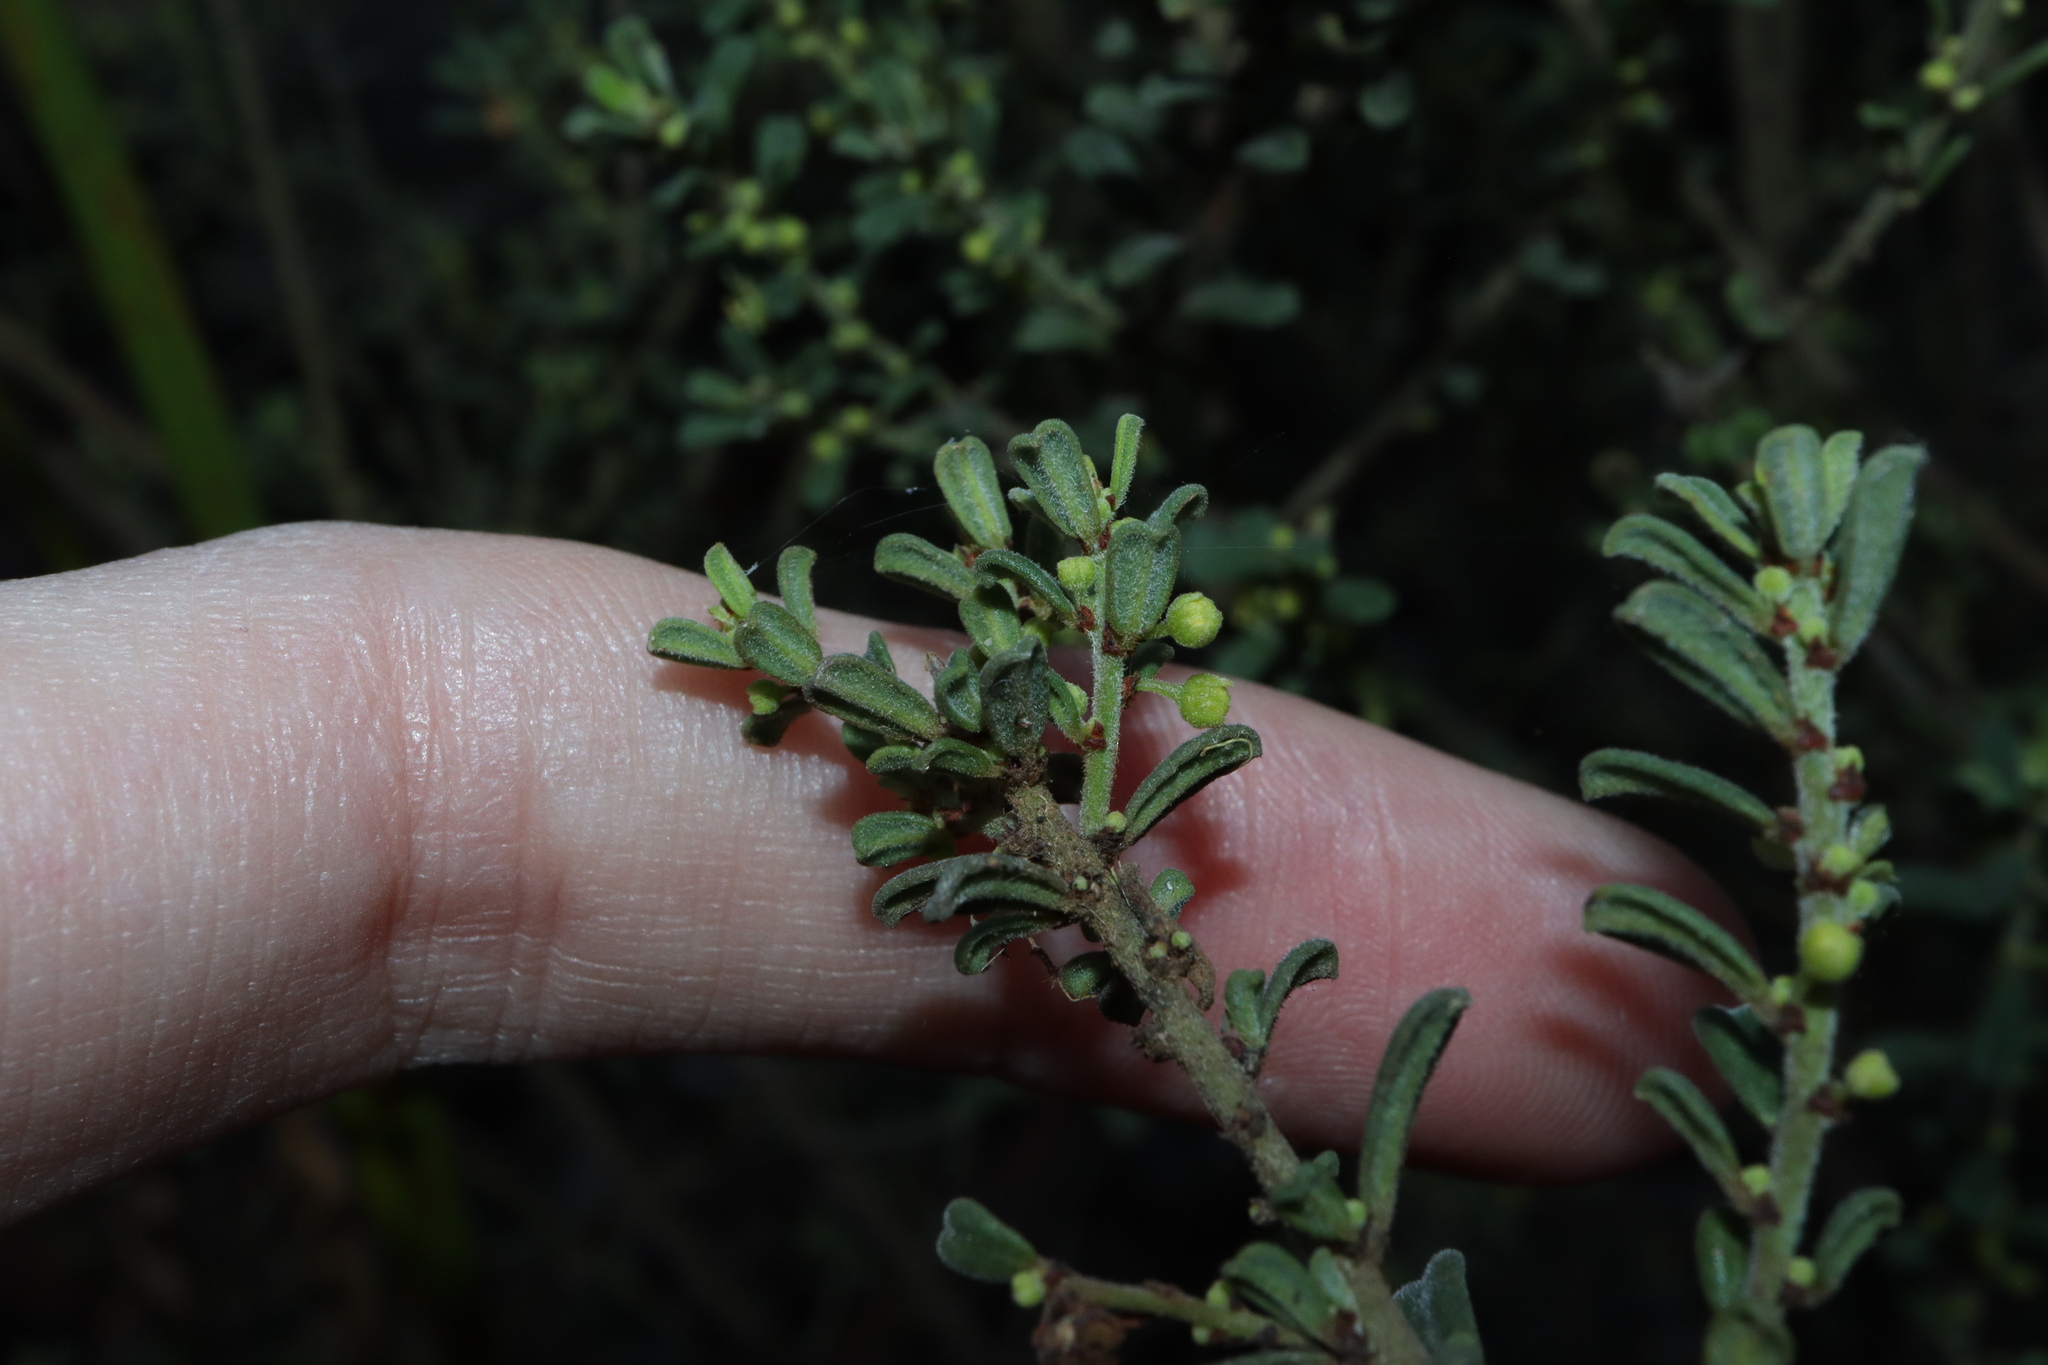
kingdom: Plantae
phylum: Tracheophyta
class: Magnoliopsida
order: Malpighiales
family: Phyllanthaceae
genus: Phyllanthus
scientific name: Phyllanthus occidentalis
